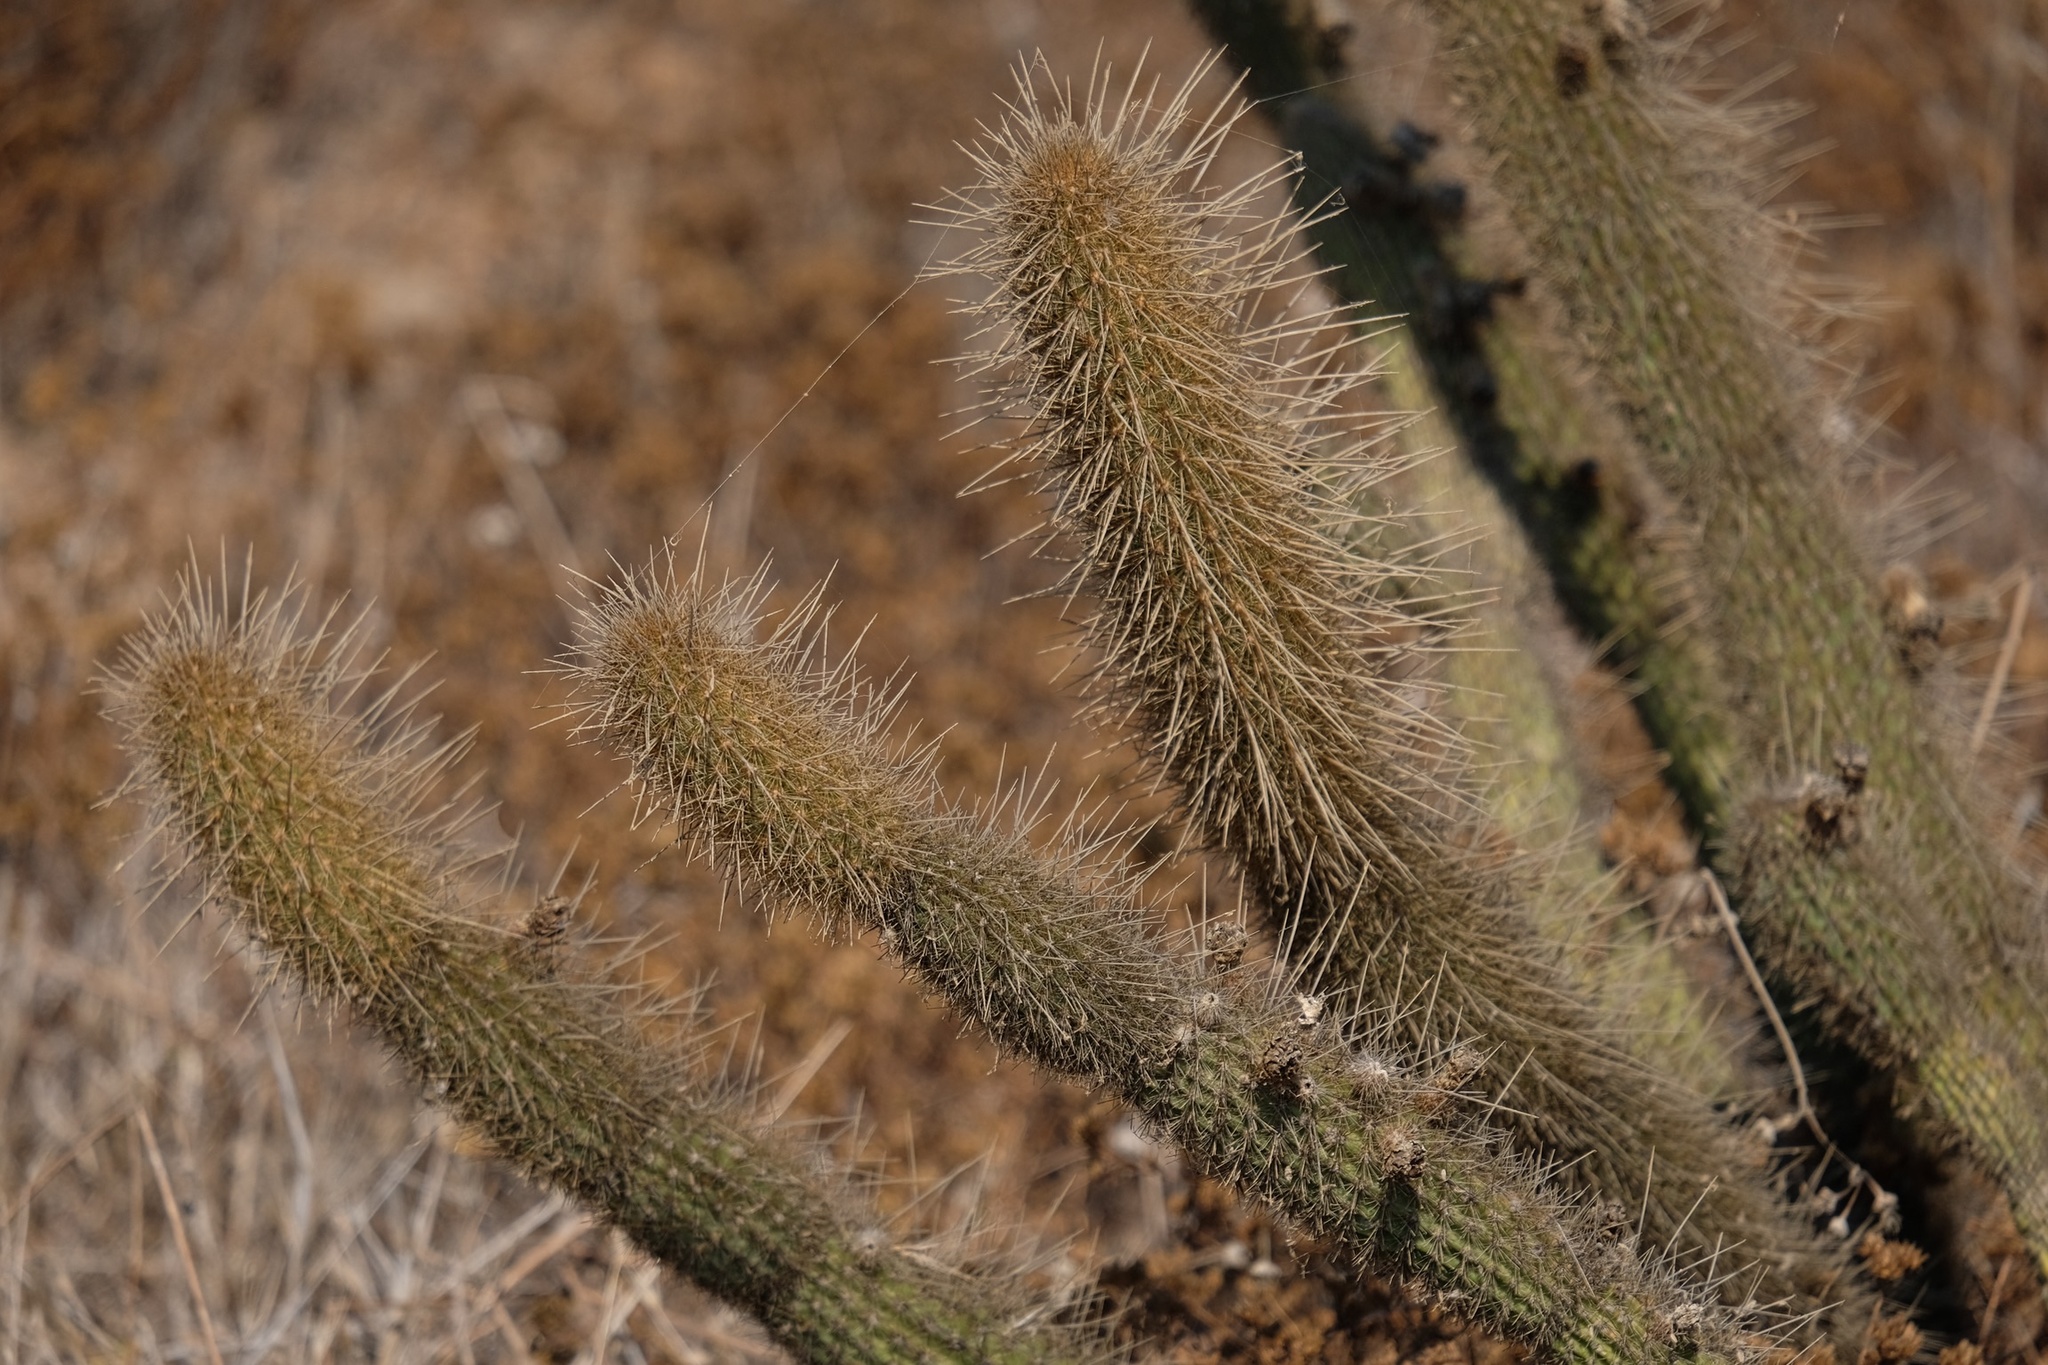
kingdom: Plantae
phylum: Tracheophyta
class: Magnoliopsida
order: Caryophyllales
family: Cactaceae
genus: Bergerocactus
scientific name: Bergerocactus emoryi
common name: Golden snakecactus
